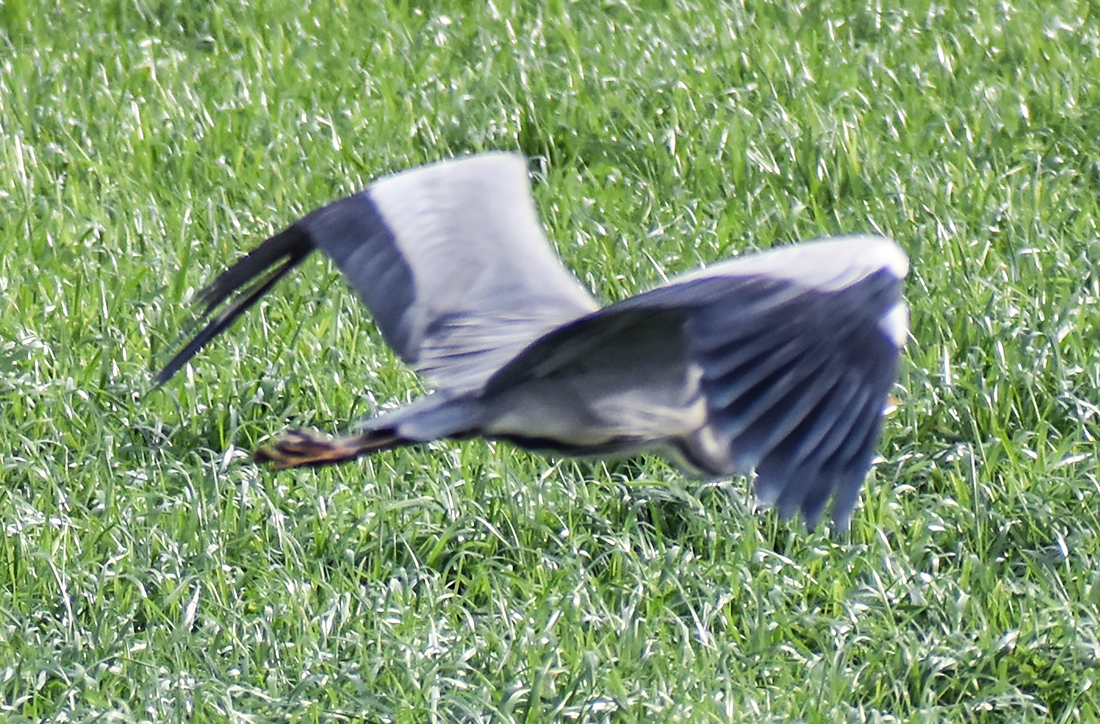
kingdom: Animalia
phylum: Chordata
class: Aves
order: Pelecaniformes
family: Ardeidae
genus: Ardea
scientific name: Ardea cinerea
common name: Grey heron
